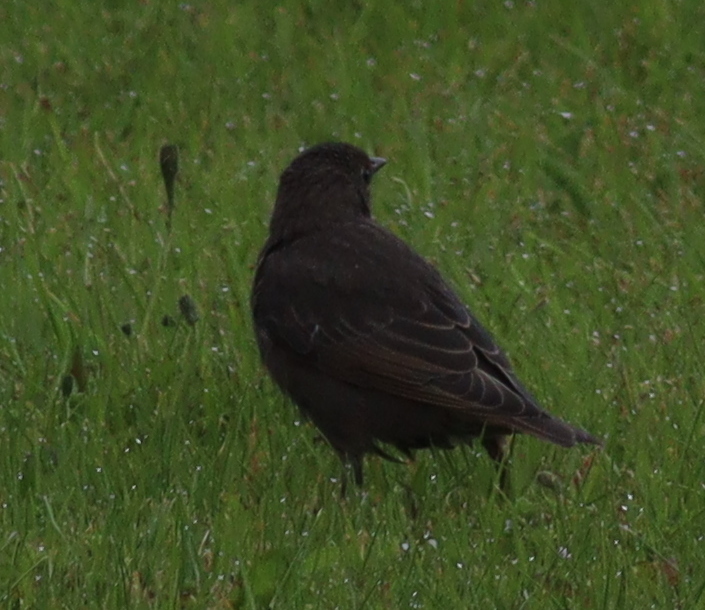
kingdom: Animalia
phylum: Chordata
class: Aves
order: Passeriformes
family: Sturnidae
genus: Sturnus
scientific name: Sturnus vulgaris
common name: Common starling
